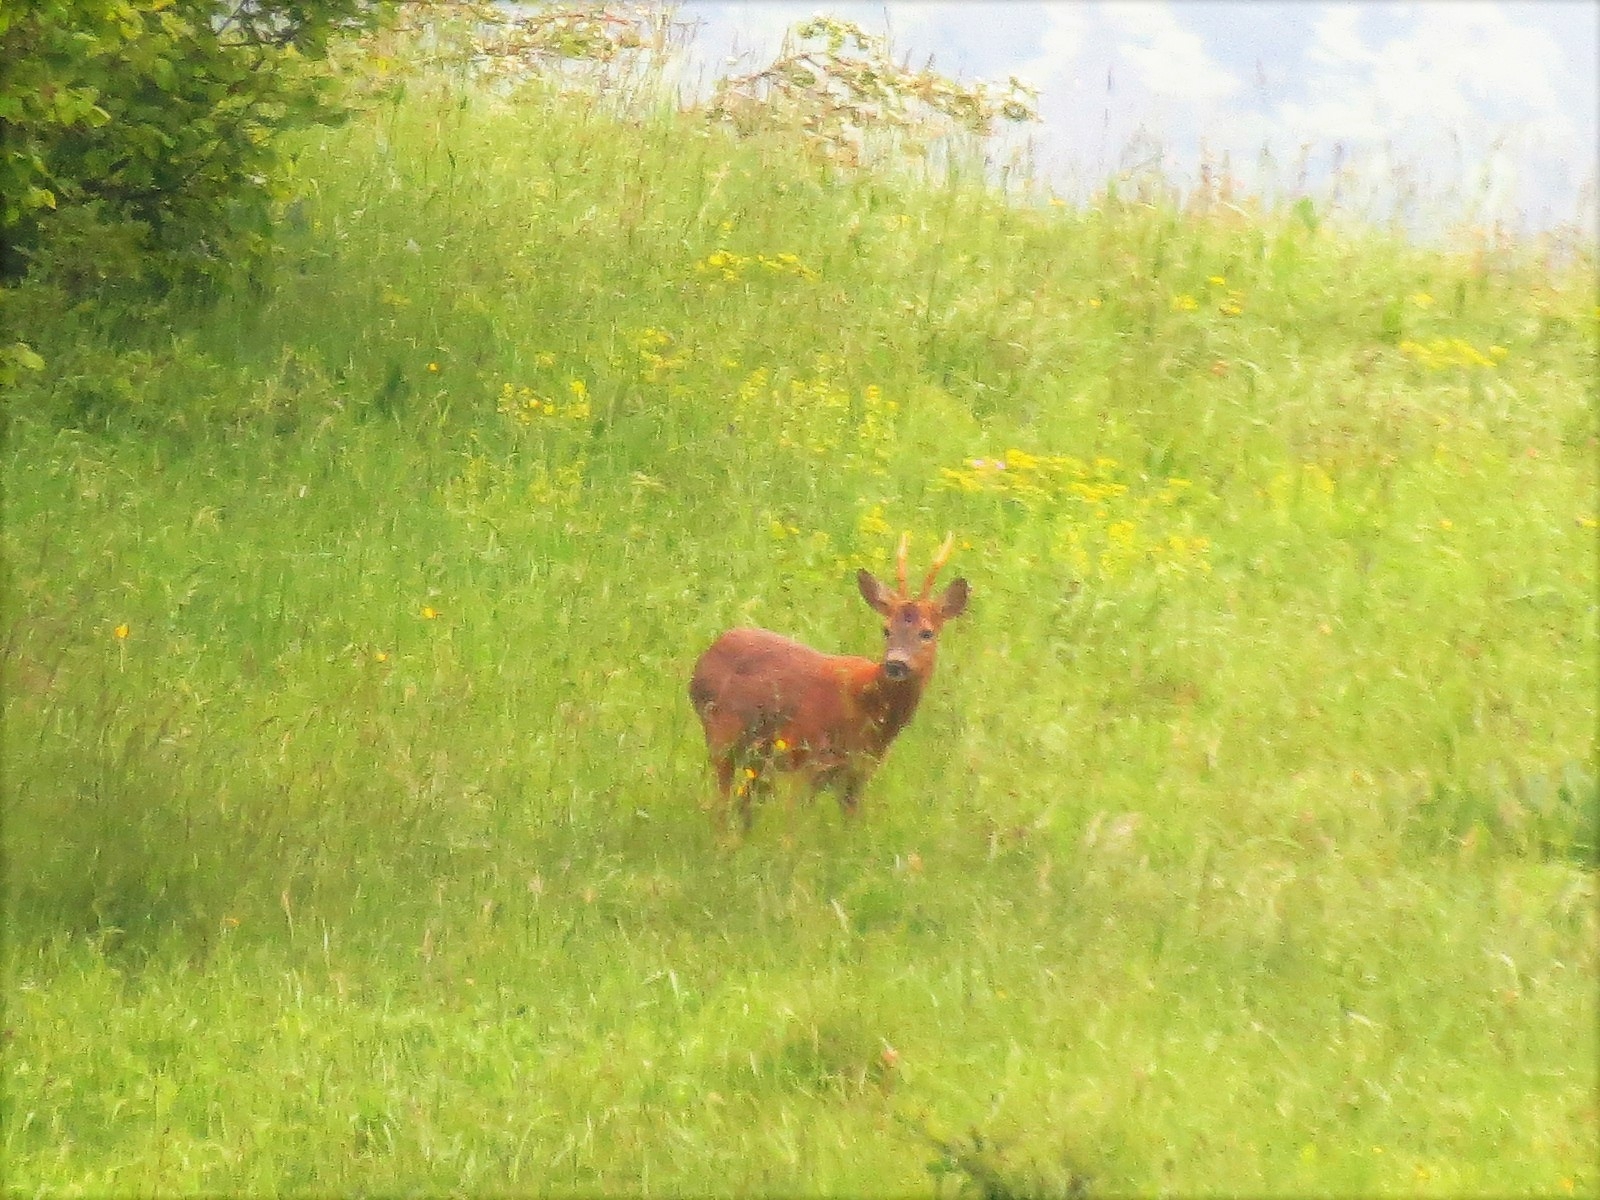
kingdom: Animalia
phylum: Chordata
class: Mammalia
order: Artiodactyla
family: Cervidae
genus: Capreolus
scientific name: Capreolus capreolus
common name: Western roe deer
